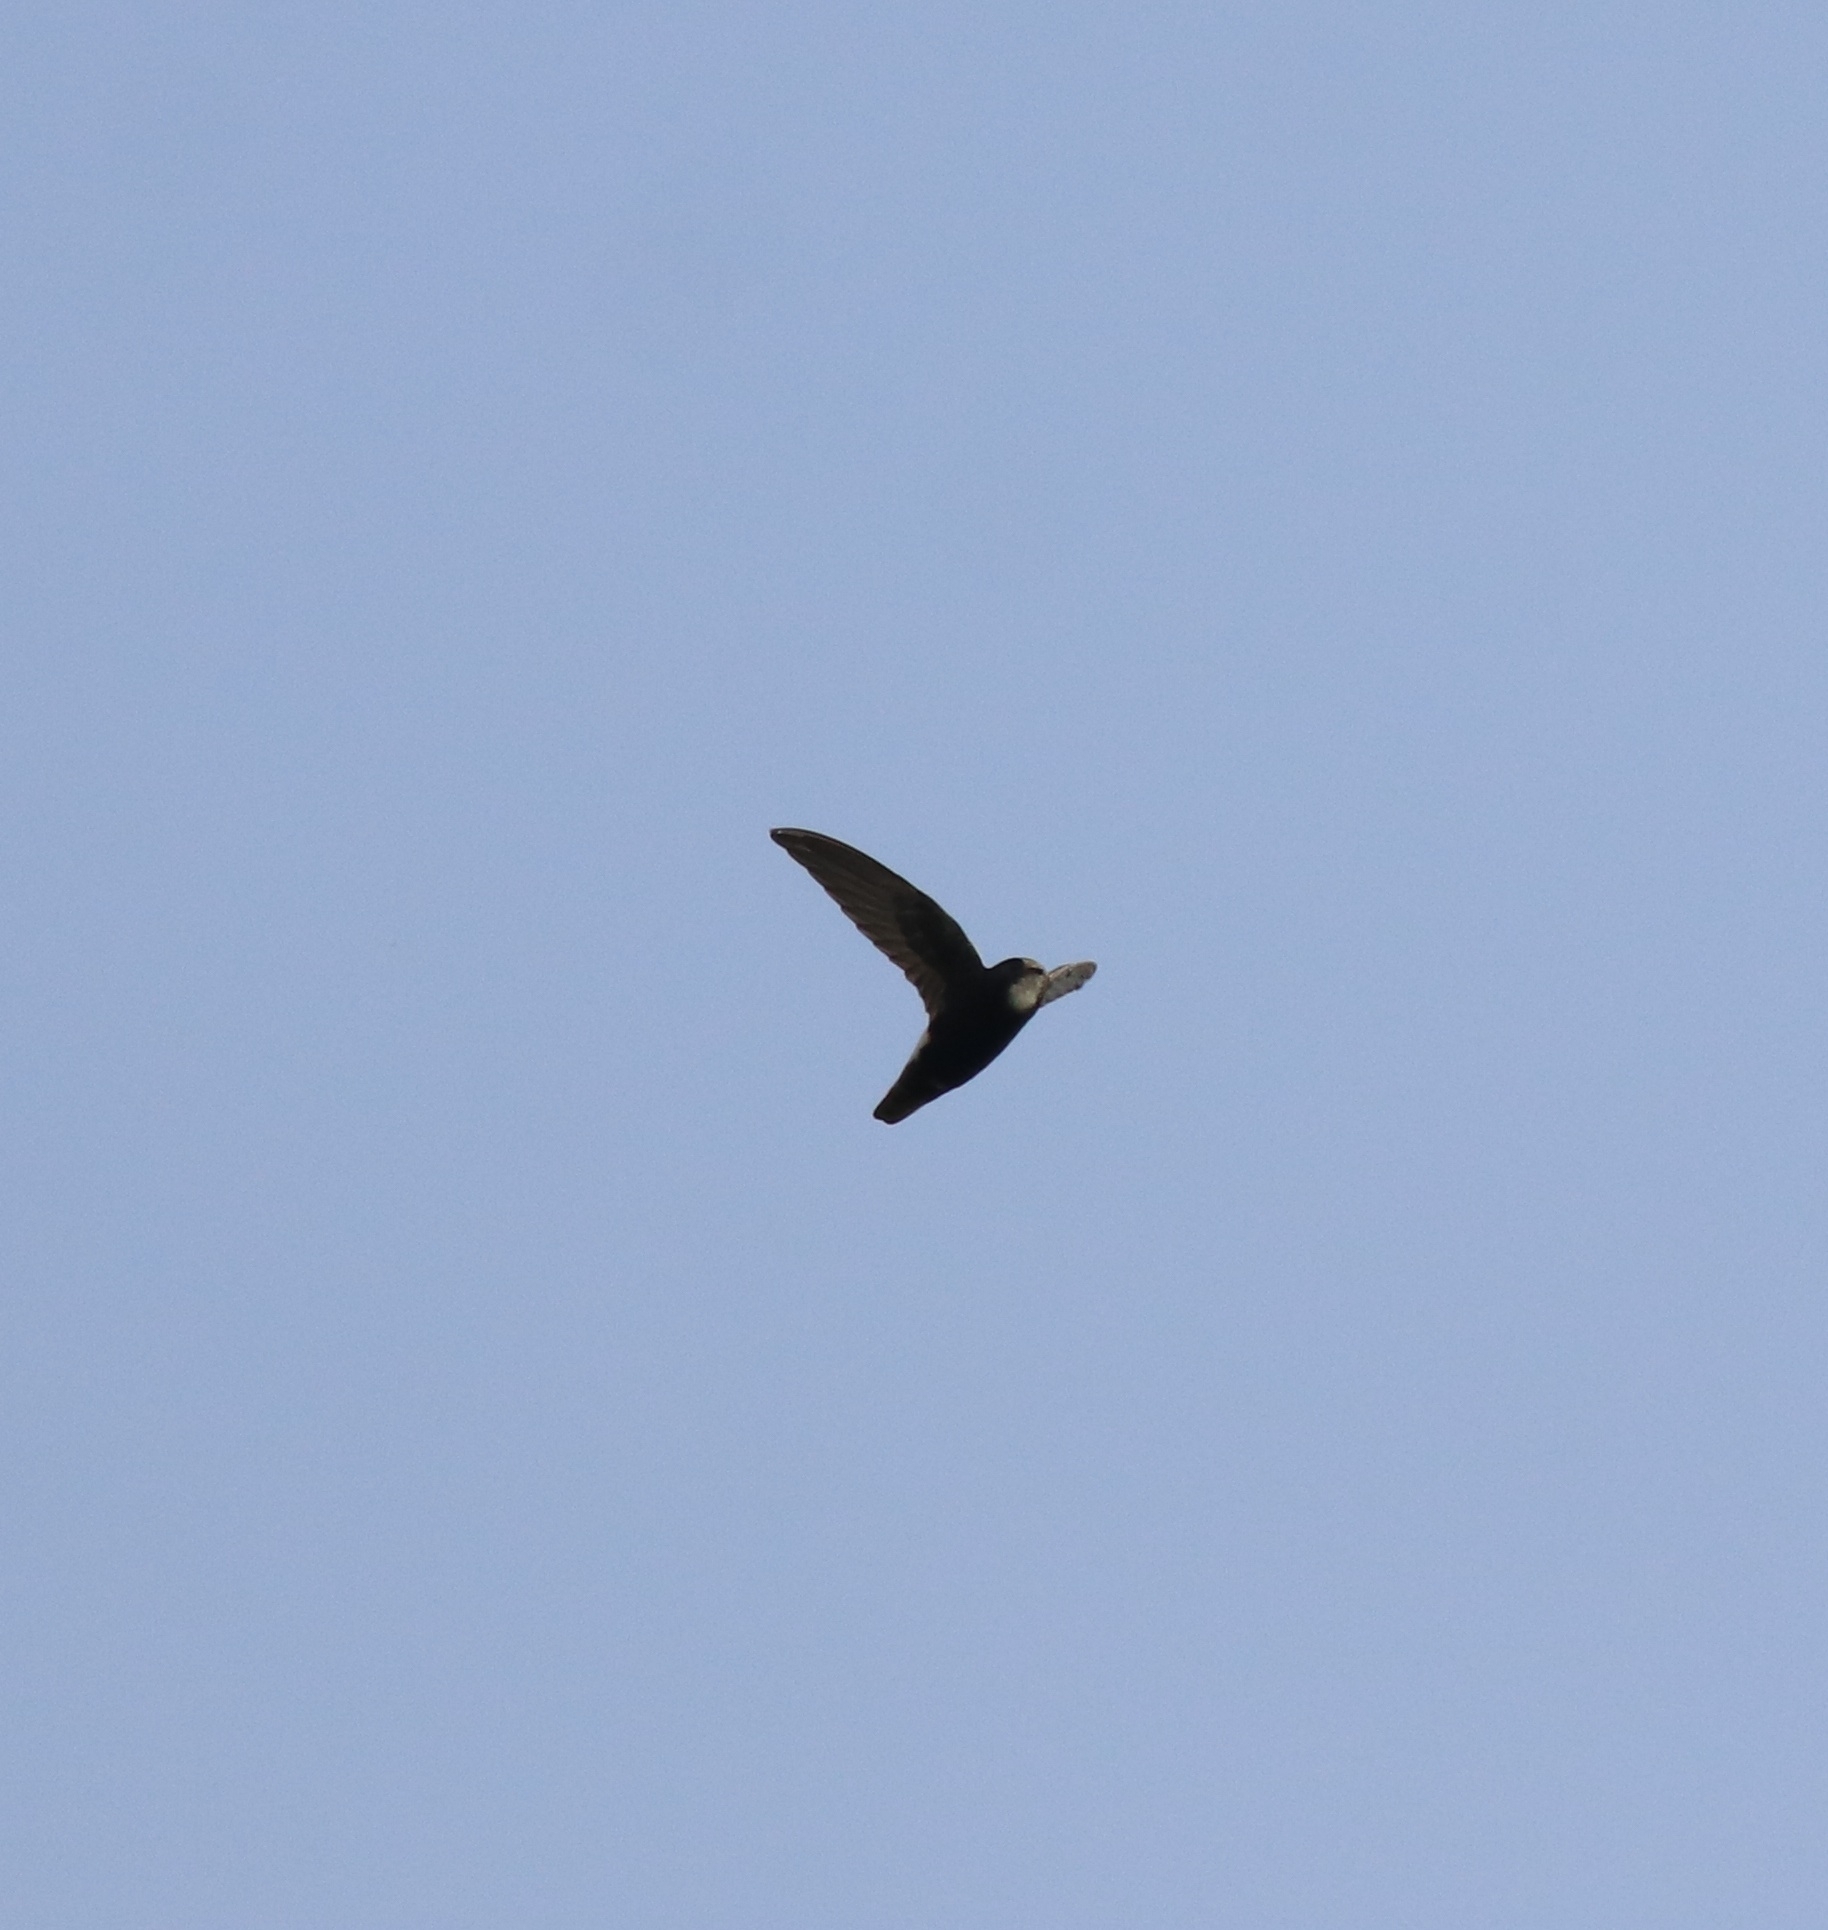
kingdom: Animalia
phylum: Chordata
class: Aves
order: Apodiformes
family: Apodidae
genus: Apus
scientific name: Apus affinis
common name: Little swift
